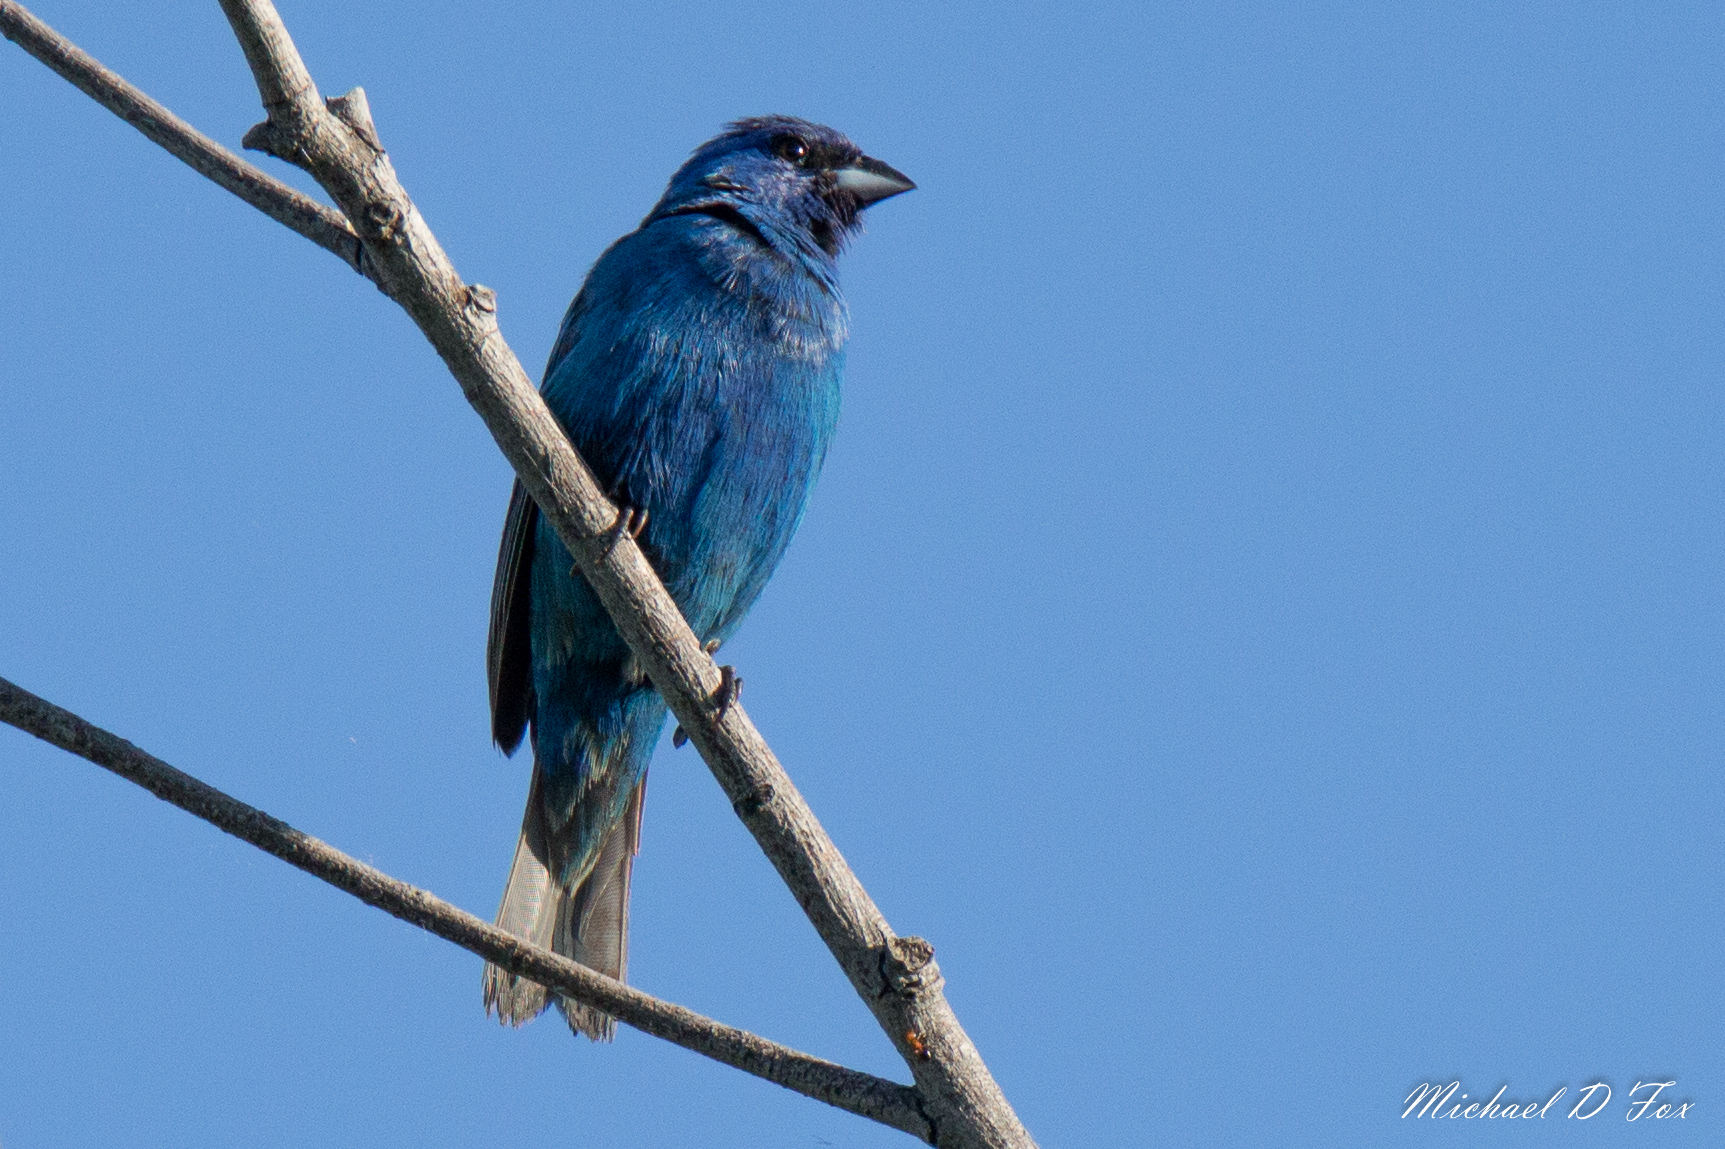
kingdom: Animalia
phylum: Chordata
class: Aves
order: Passeriformes
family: Cardinalidae
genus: Passerina
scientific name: Passerina cyanea
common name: Indigo bunting
